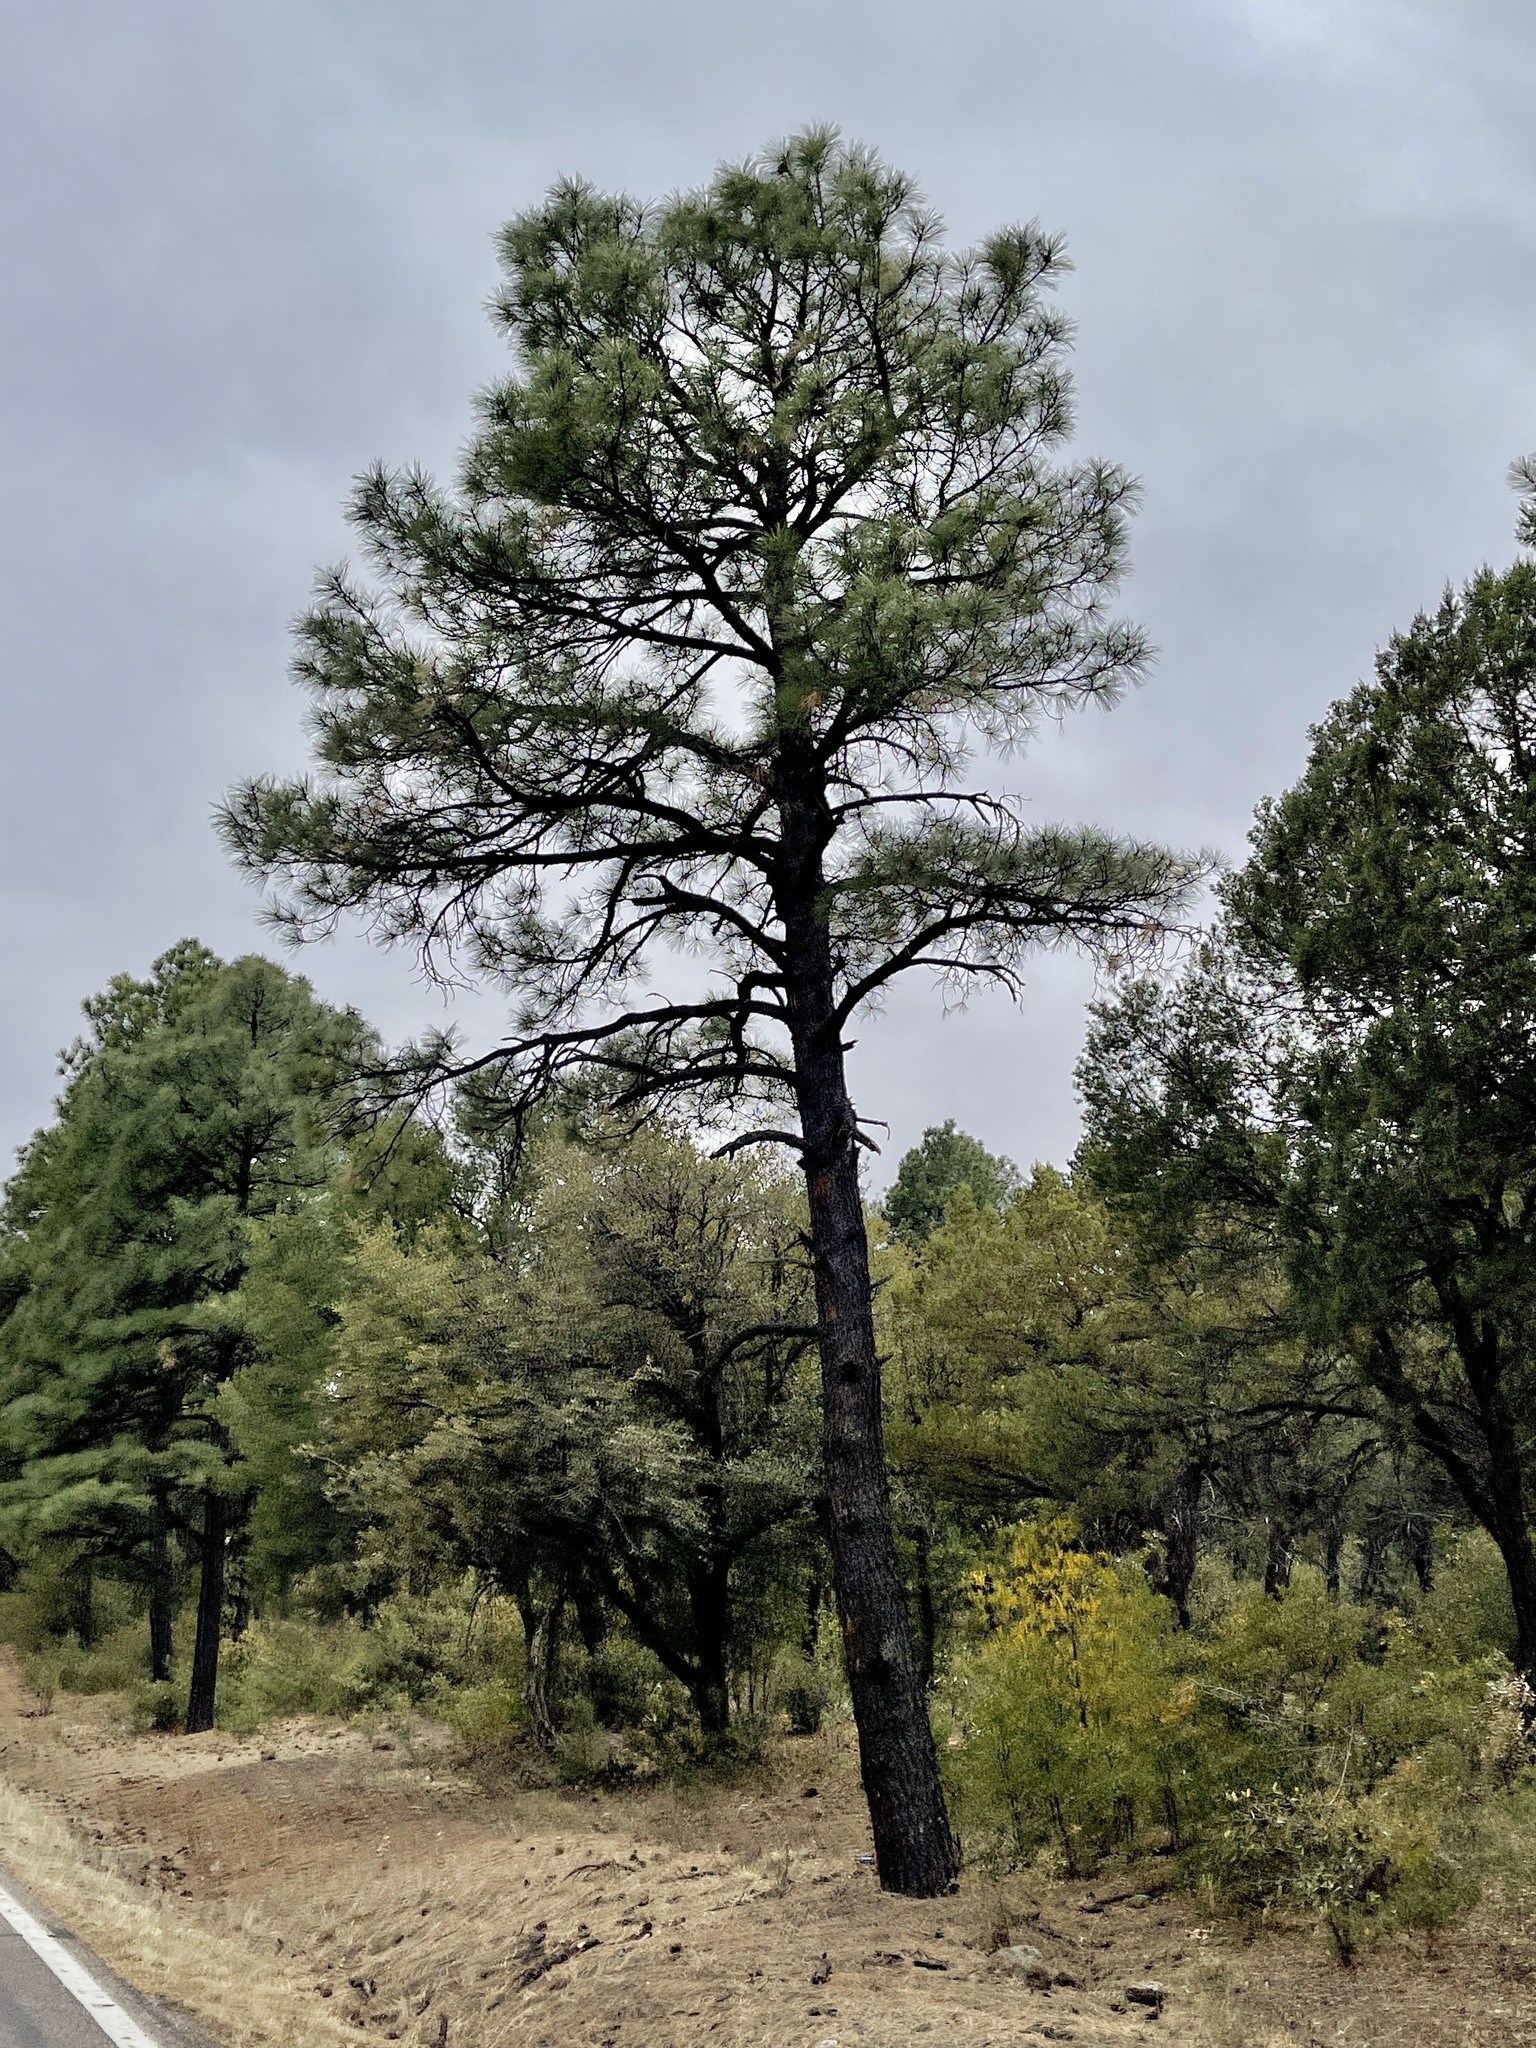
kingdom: Plantae
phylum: Tracheophyta
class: Pinopsida
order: Pinales
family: Pinaceae
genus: Pinus
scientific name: Pinus ponderosa
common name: Western yellow-pine
